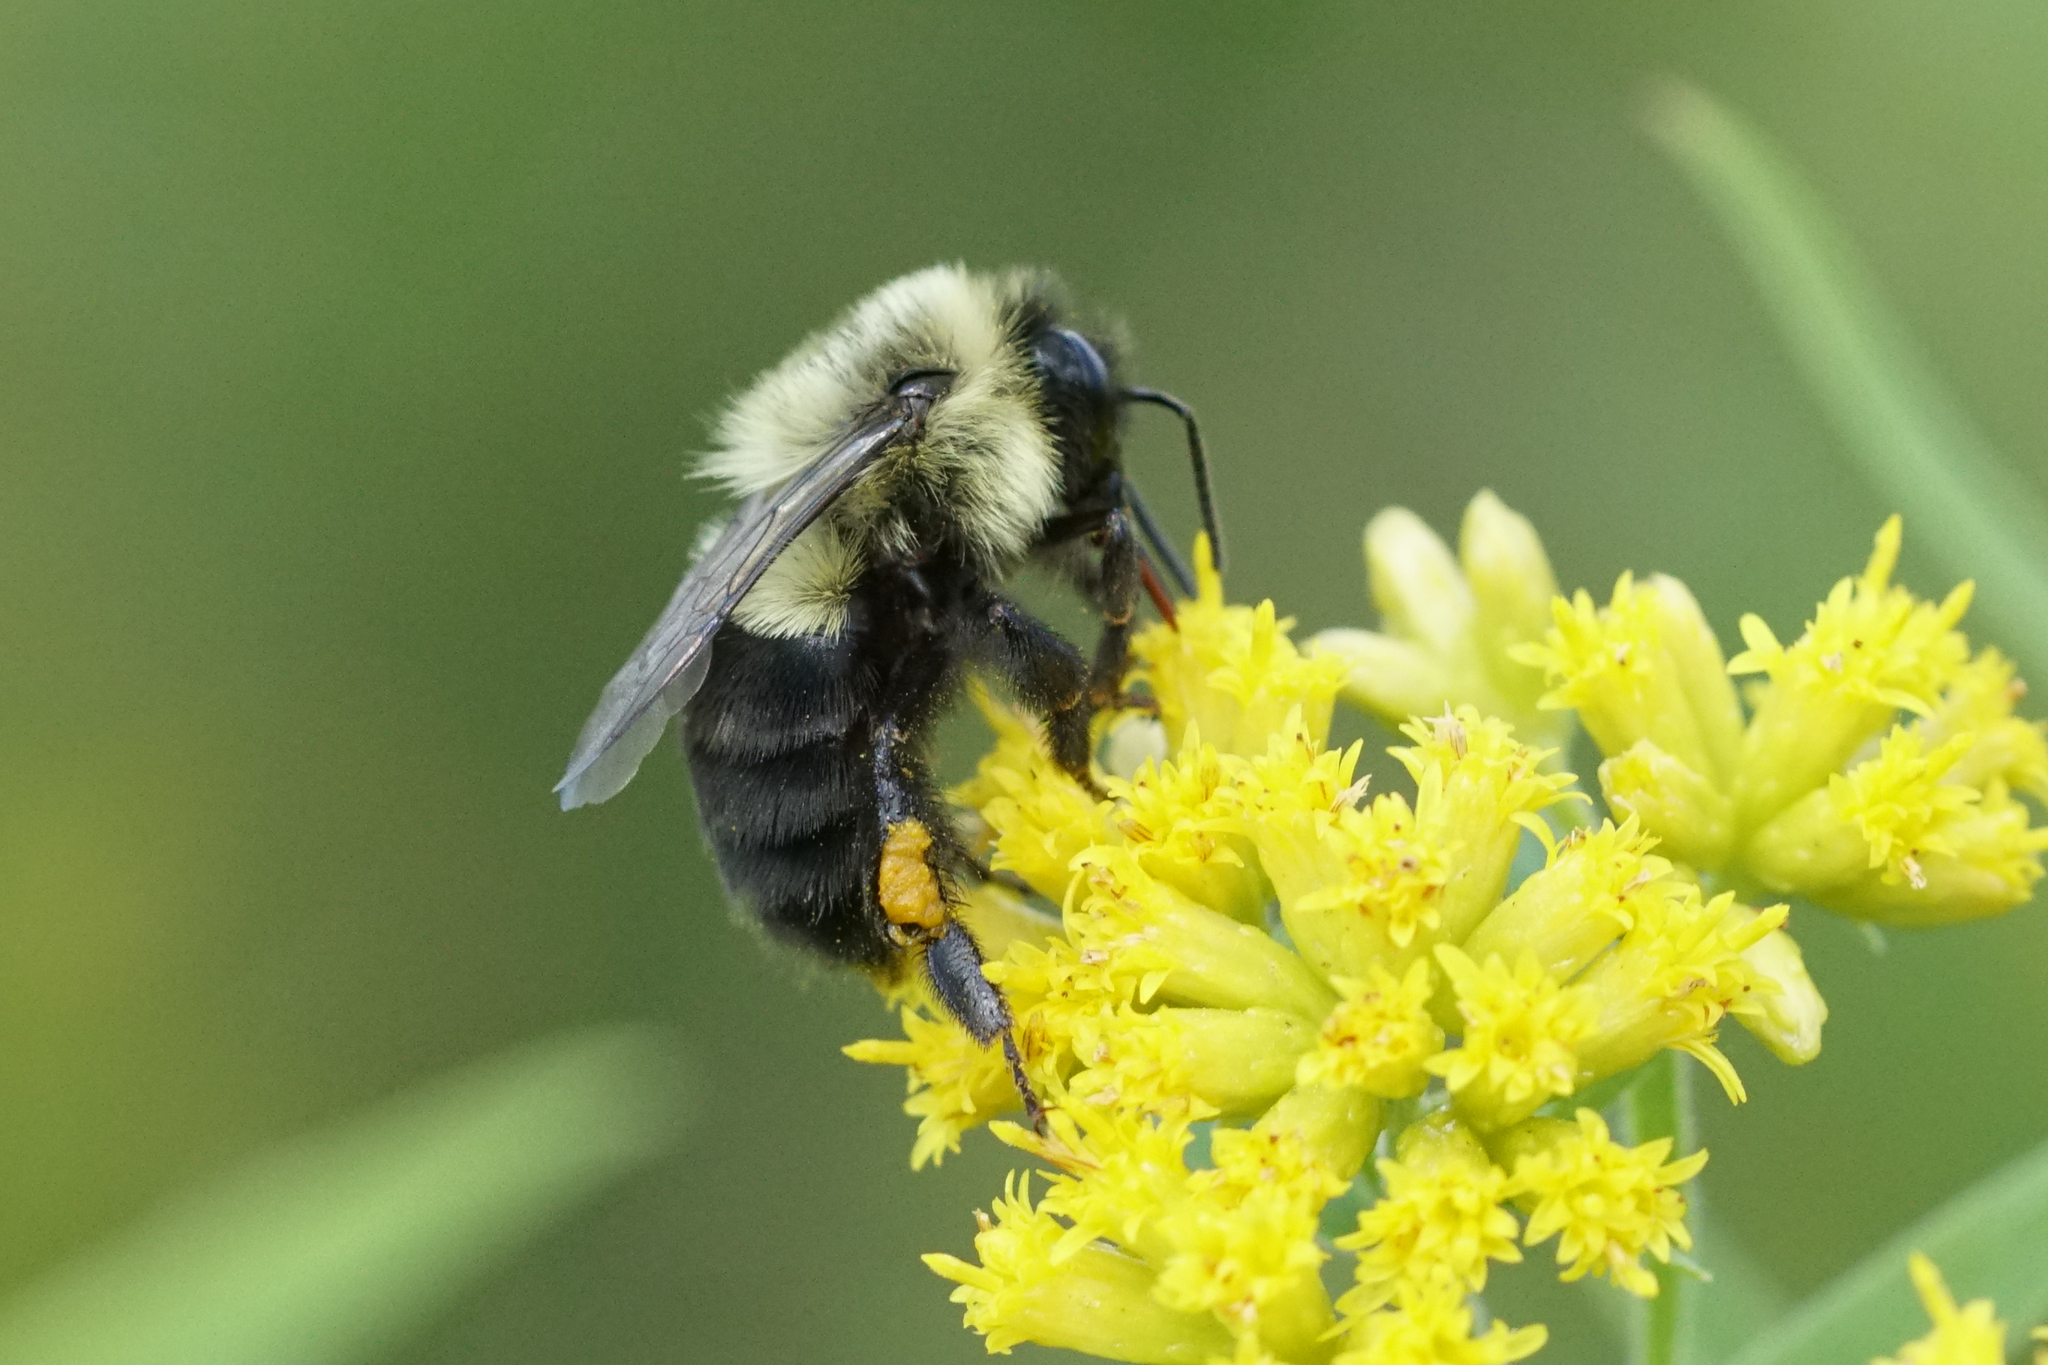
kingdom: Animalia
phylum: Arthropoda
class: Insecta
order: Hymenoptera
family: Apidae
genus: Bombus
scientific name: Bombus impatiens
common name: Common eastern bumble bee
